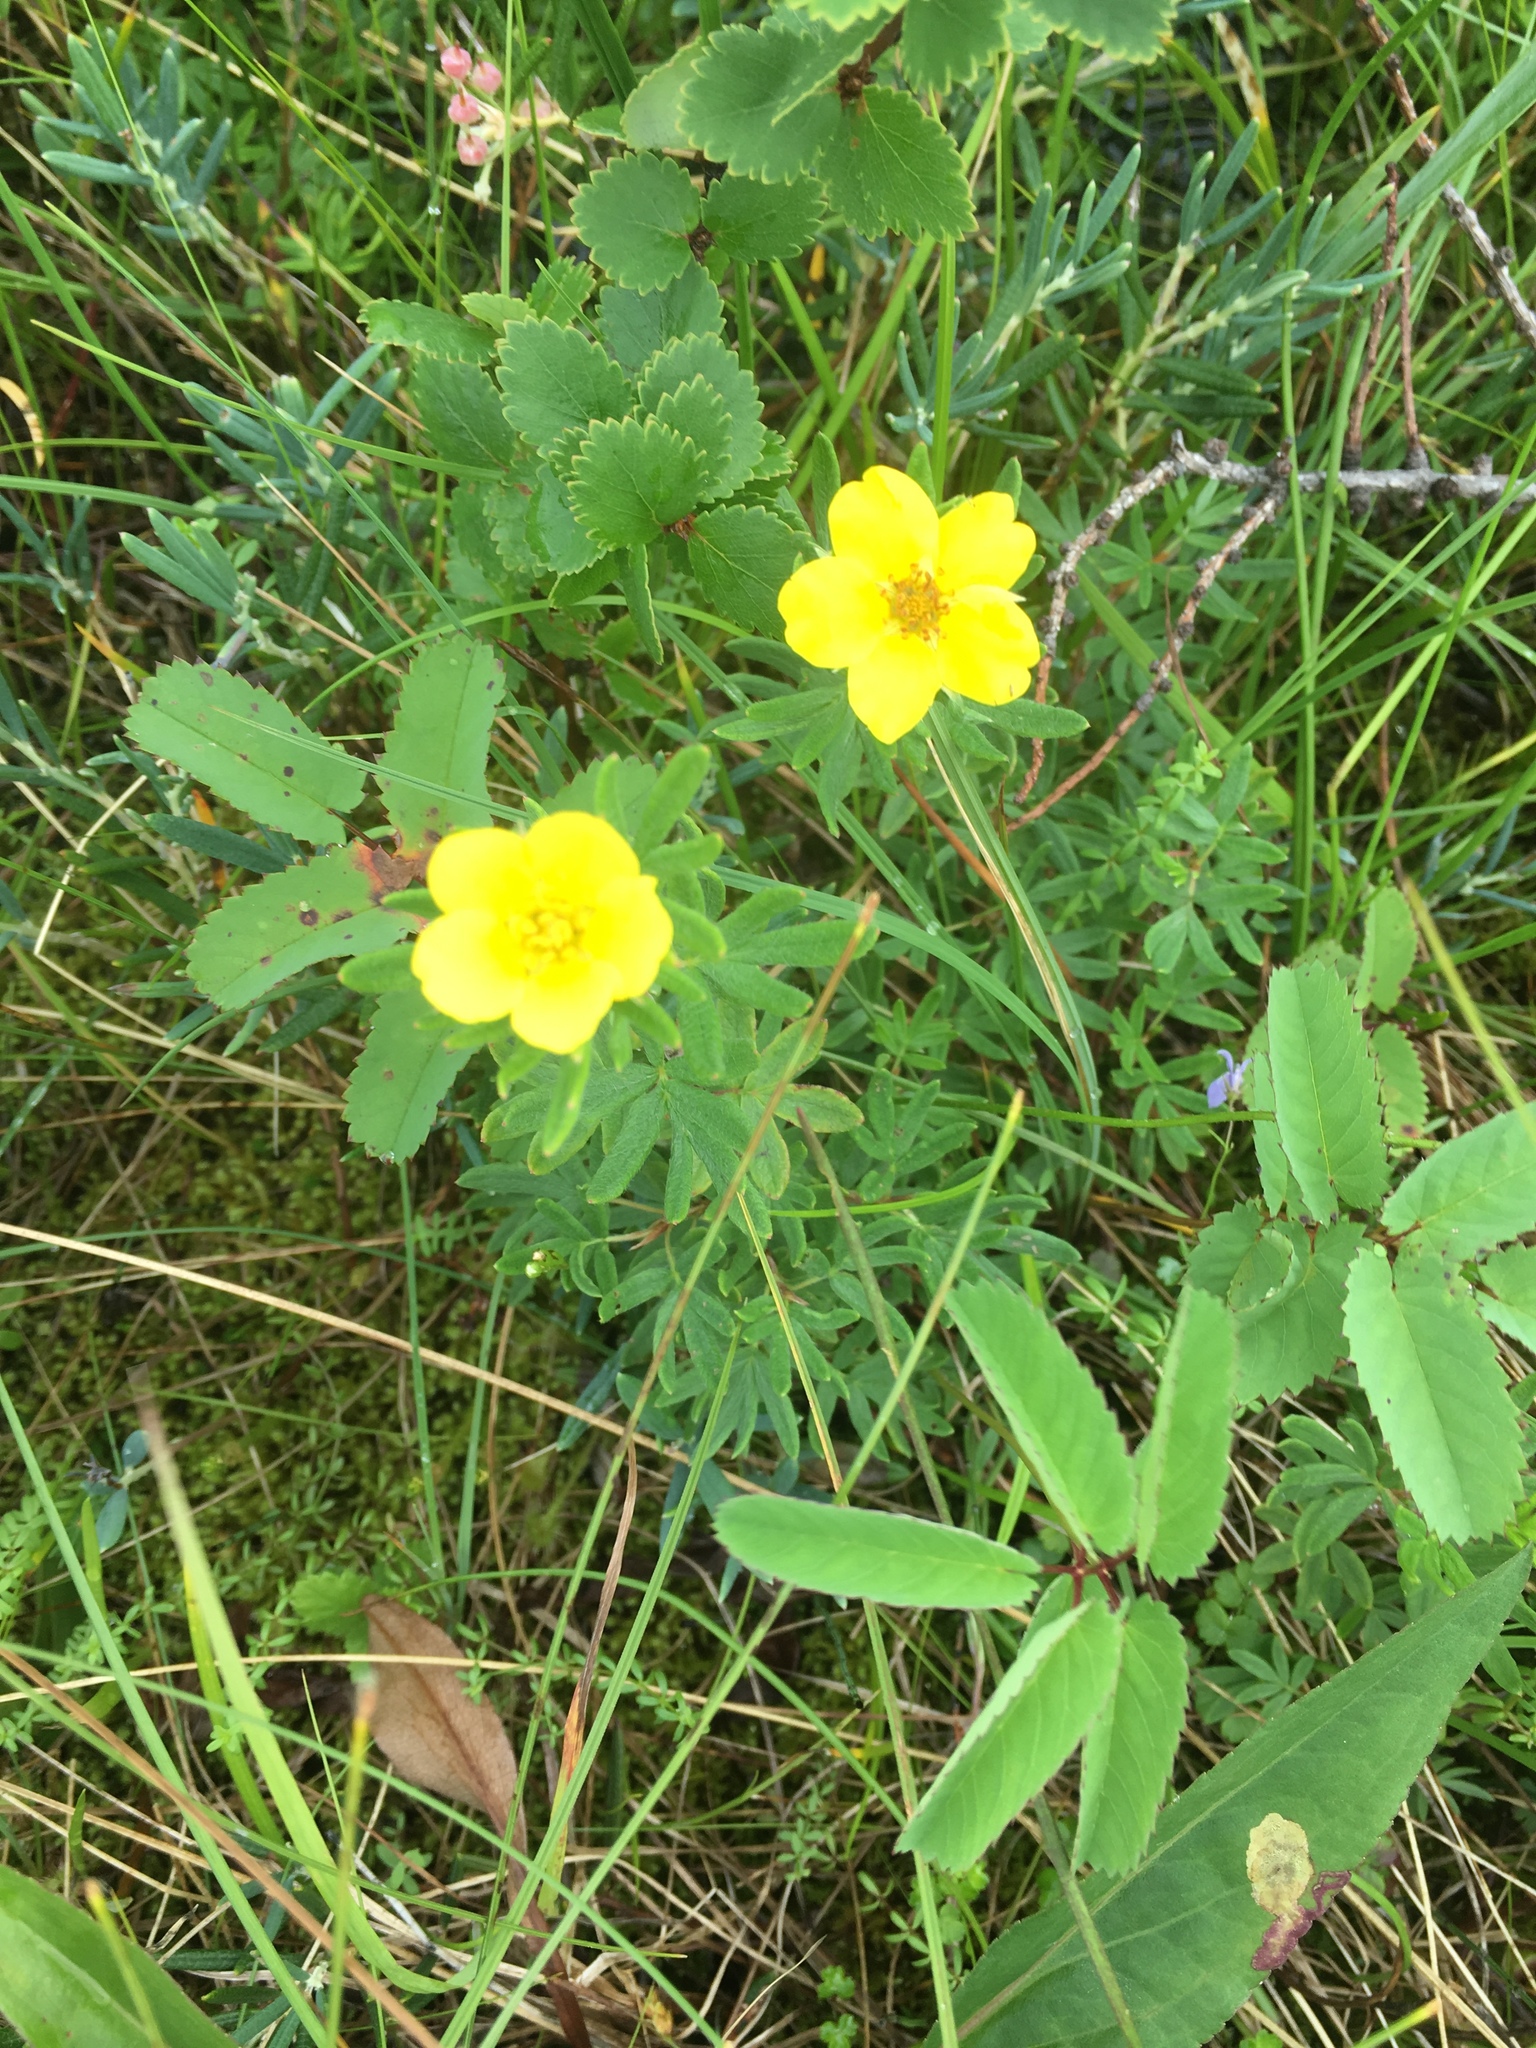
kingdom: Plantae
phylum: Tracheophyta
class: Magnoliopsida
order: Rosales
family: Rosaceae
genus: Dasiphora
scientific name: Dasiphora fruticosa
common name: Shrubby cinquefoil
